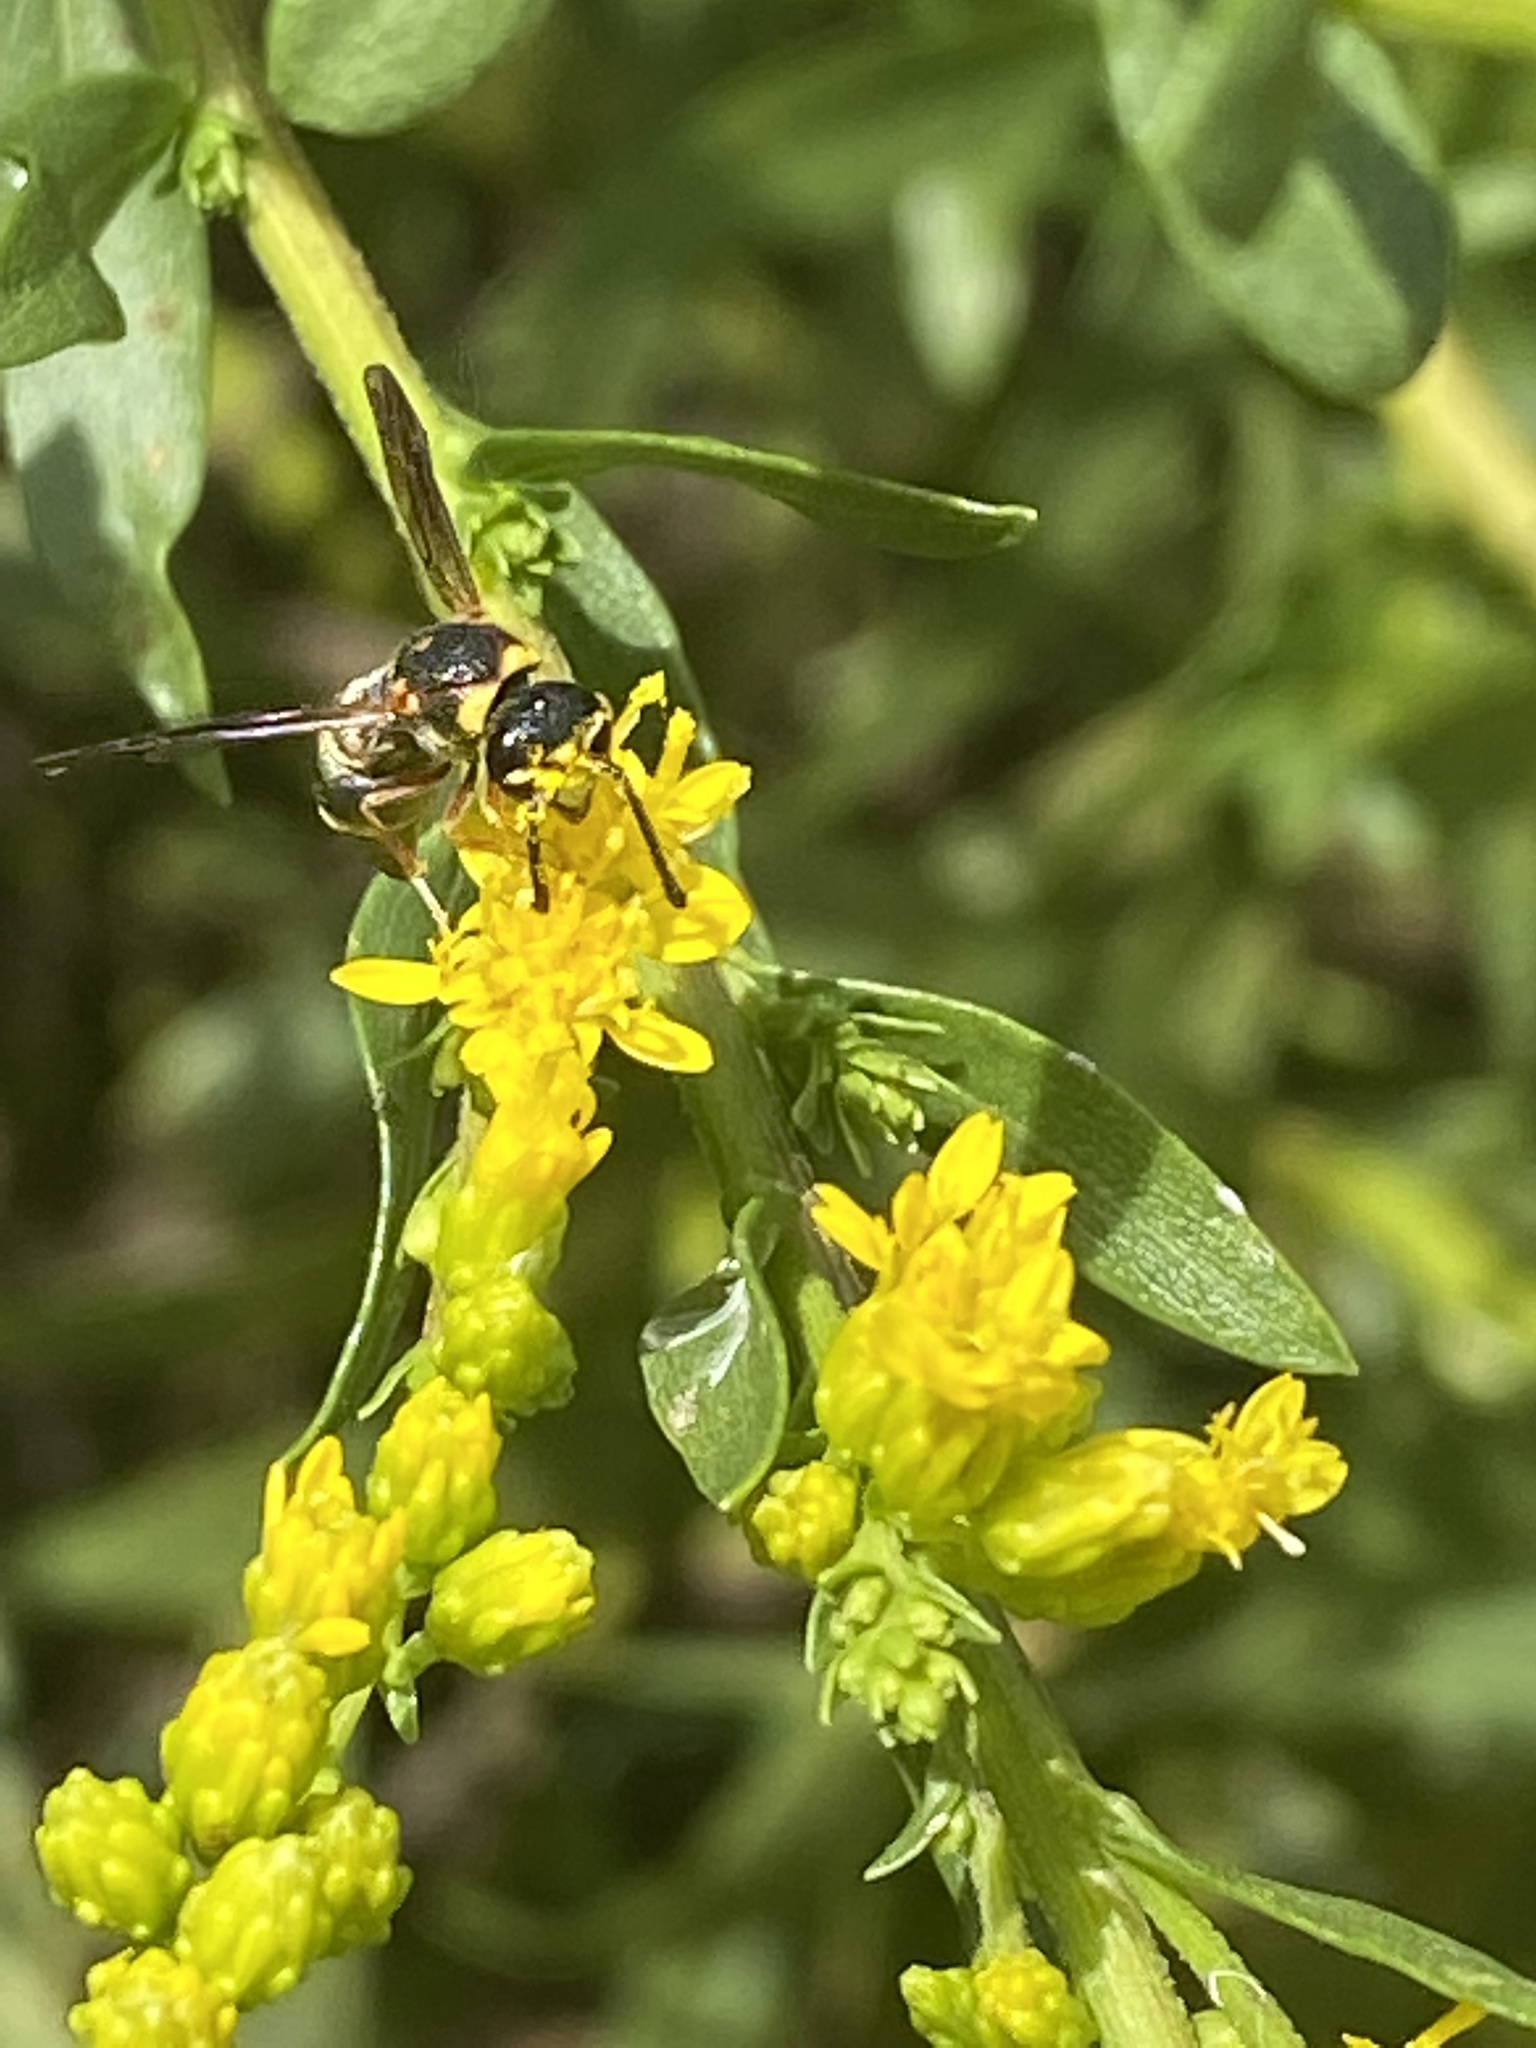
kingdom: Animalia
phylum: Arthropoda
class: Insecta
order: Hymenoptera
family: Eumenidae
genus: Parancistrocerus
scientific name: Parancistrocerus fulvipes
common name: Potter wasp
